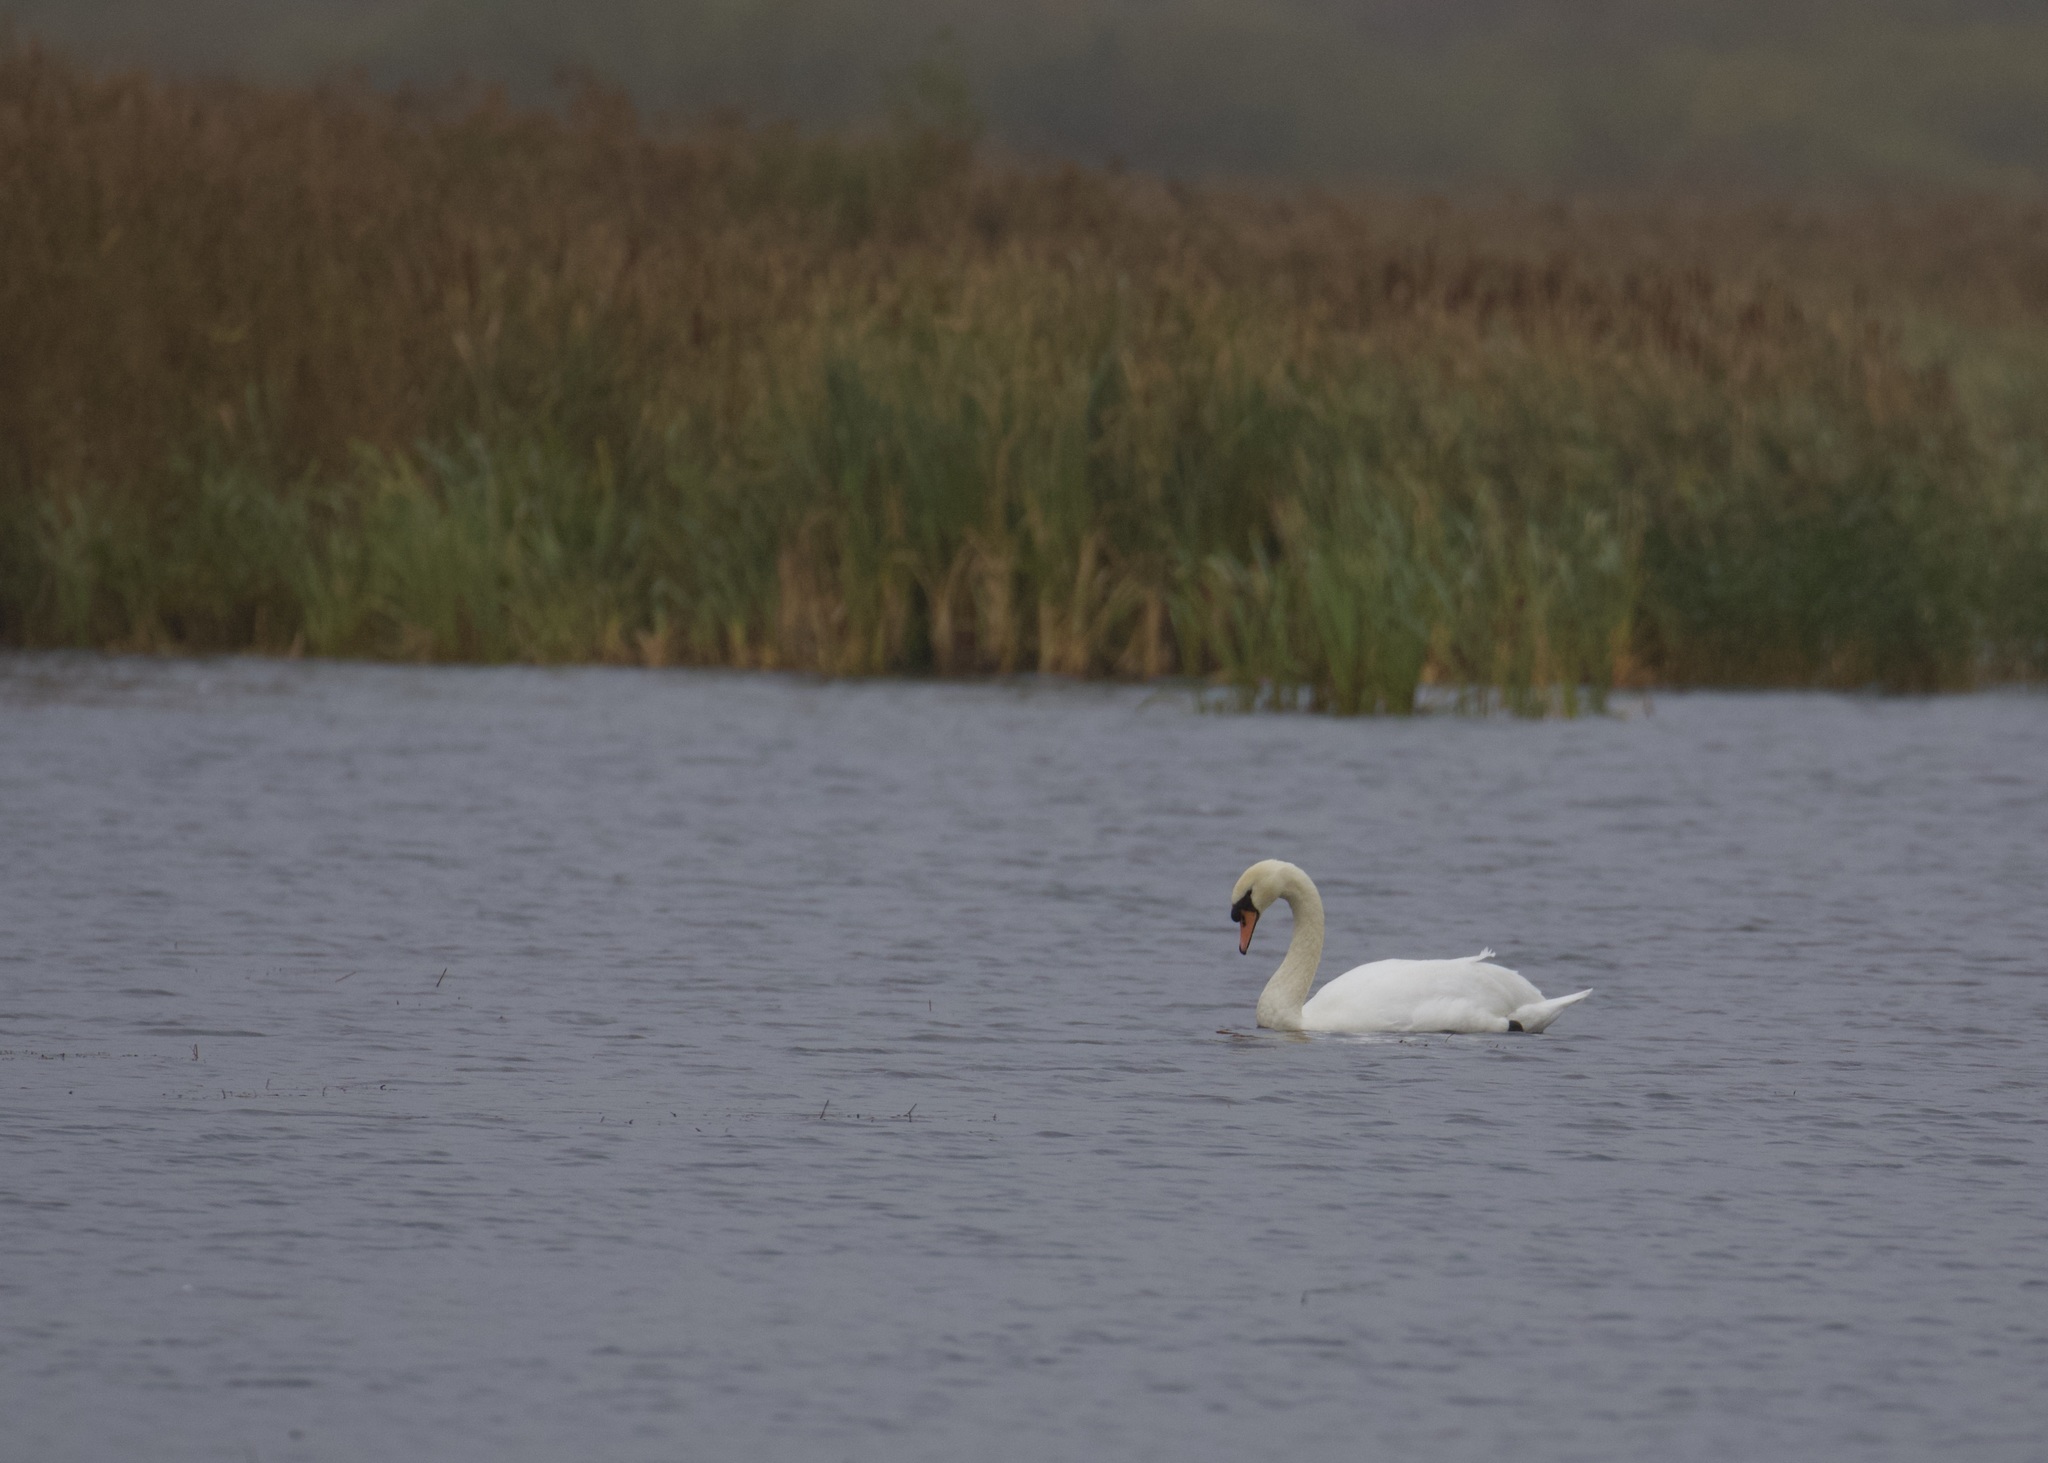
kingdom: Animalia
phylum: Chordata
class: Aves
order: Anseriformes
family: Anatidae
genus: Cygnus
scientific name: Cygnus olor
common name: Mute swan
